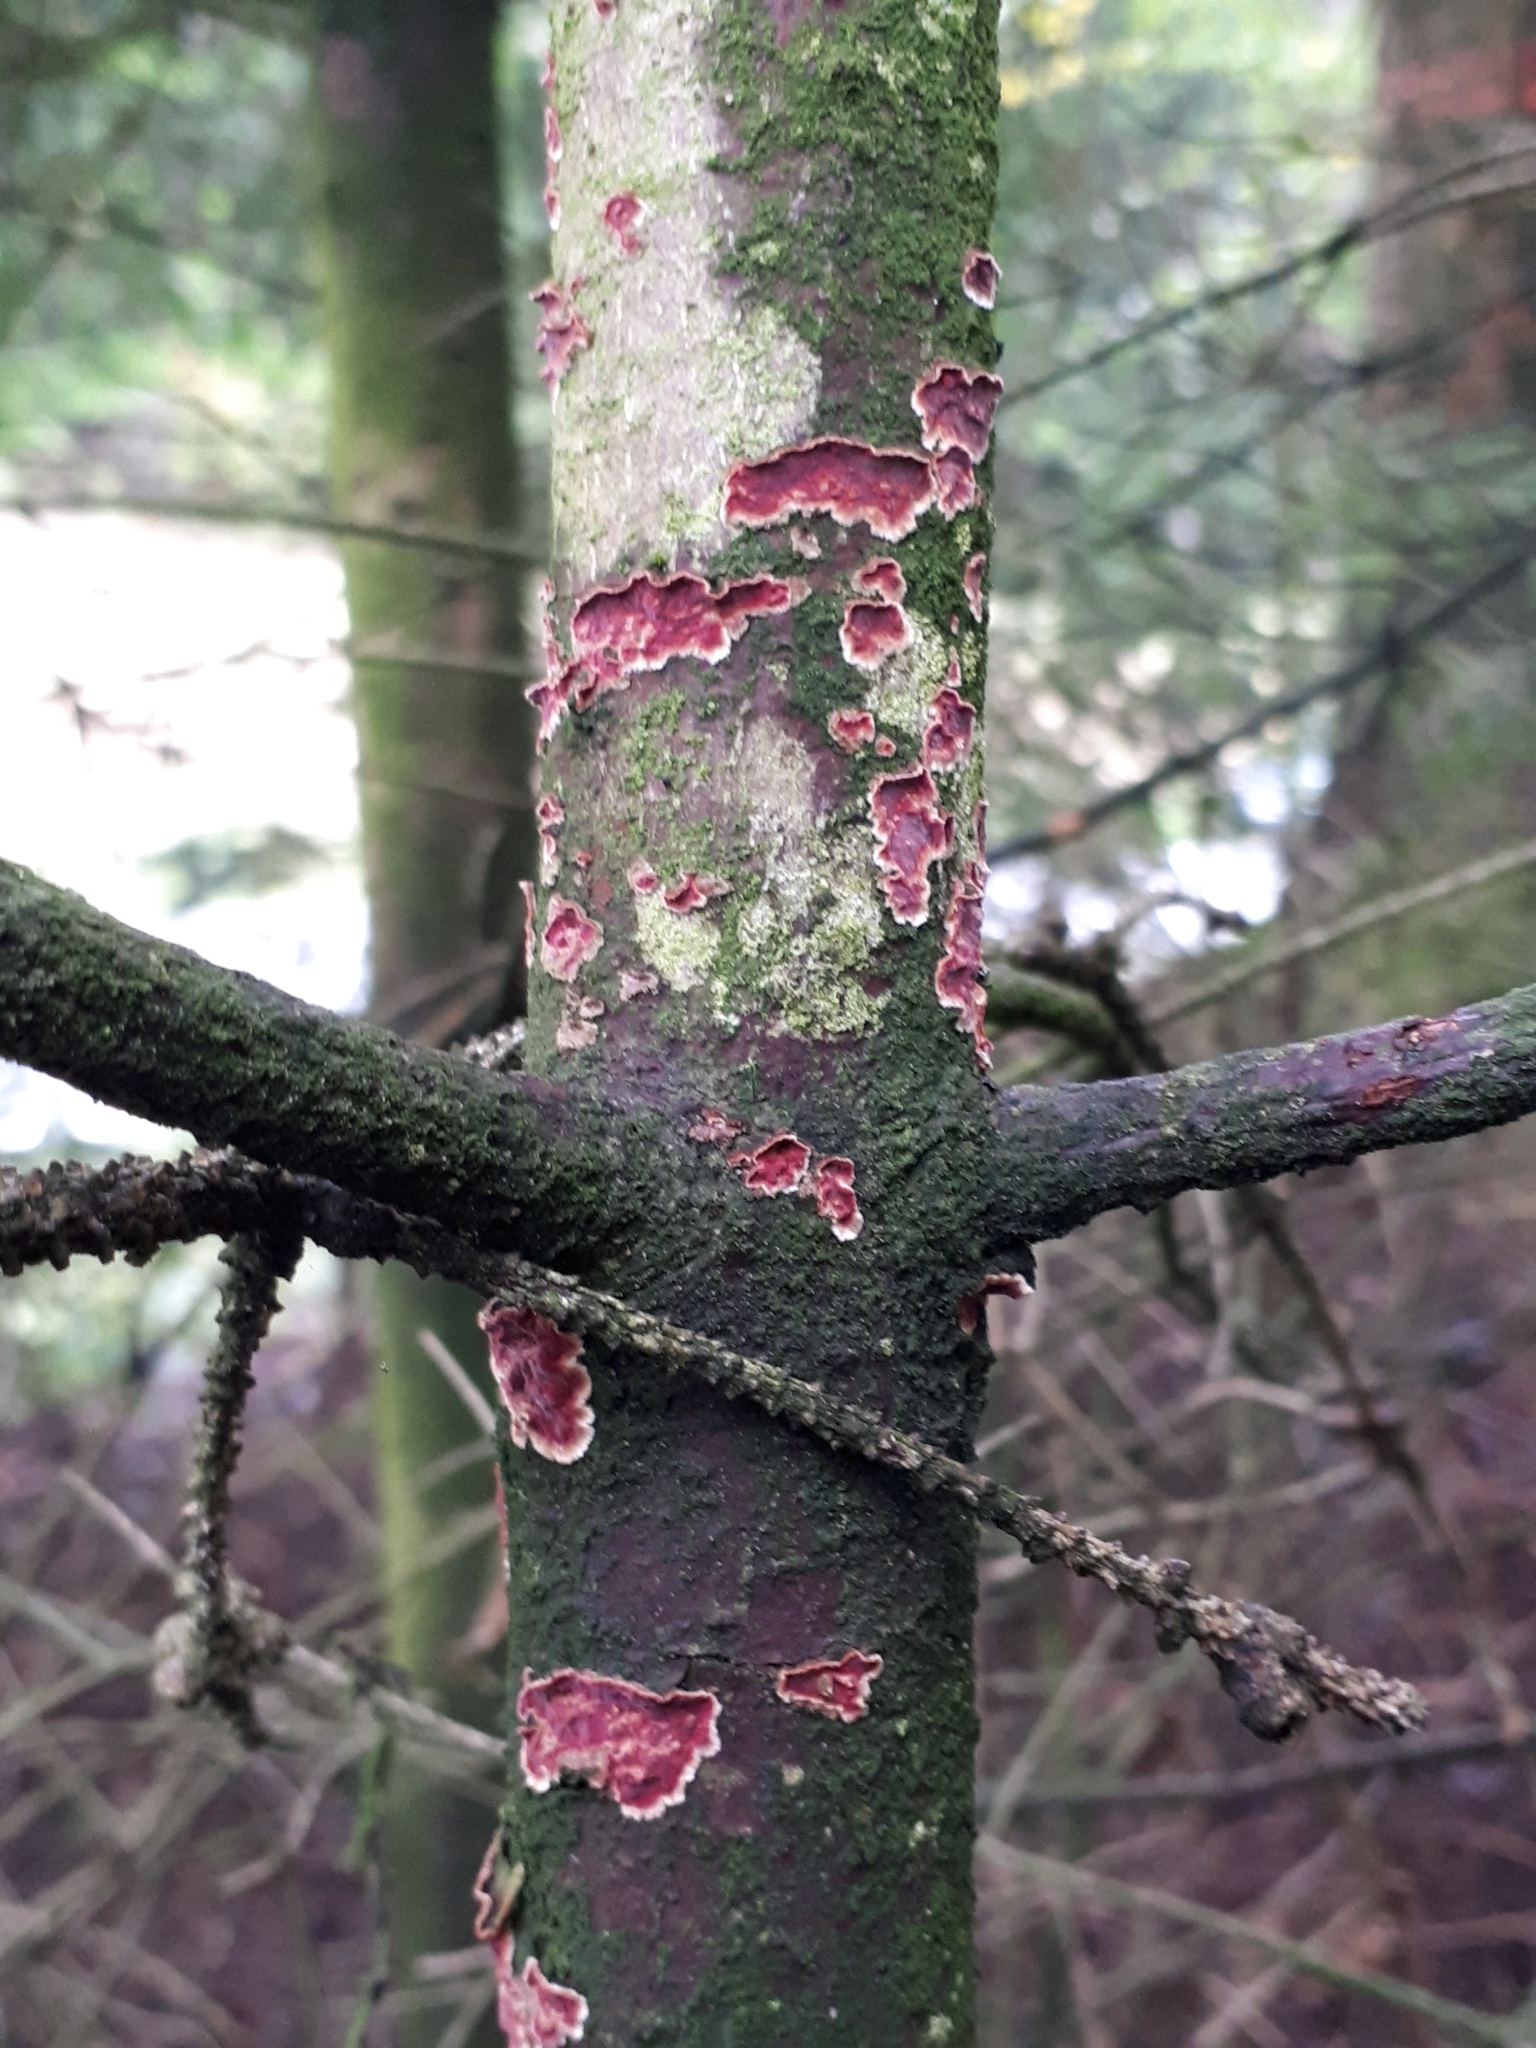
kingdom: Fungi
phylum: Basidiomycota
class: Agaricomycetes
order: Hymenochaetales
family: Hymenochaetaceae
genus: Hymenochaete
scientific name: Hymenochaete cruenta
